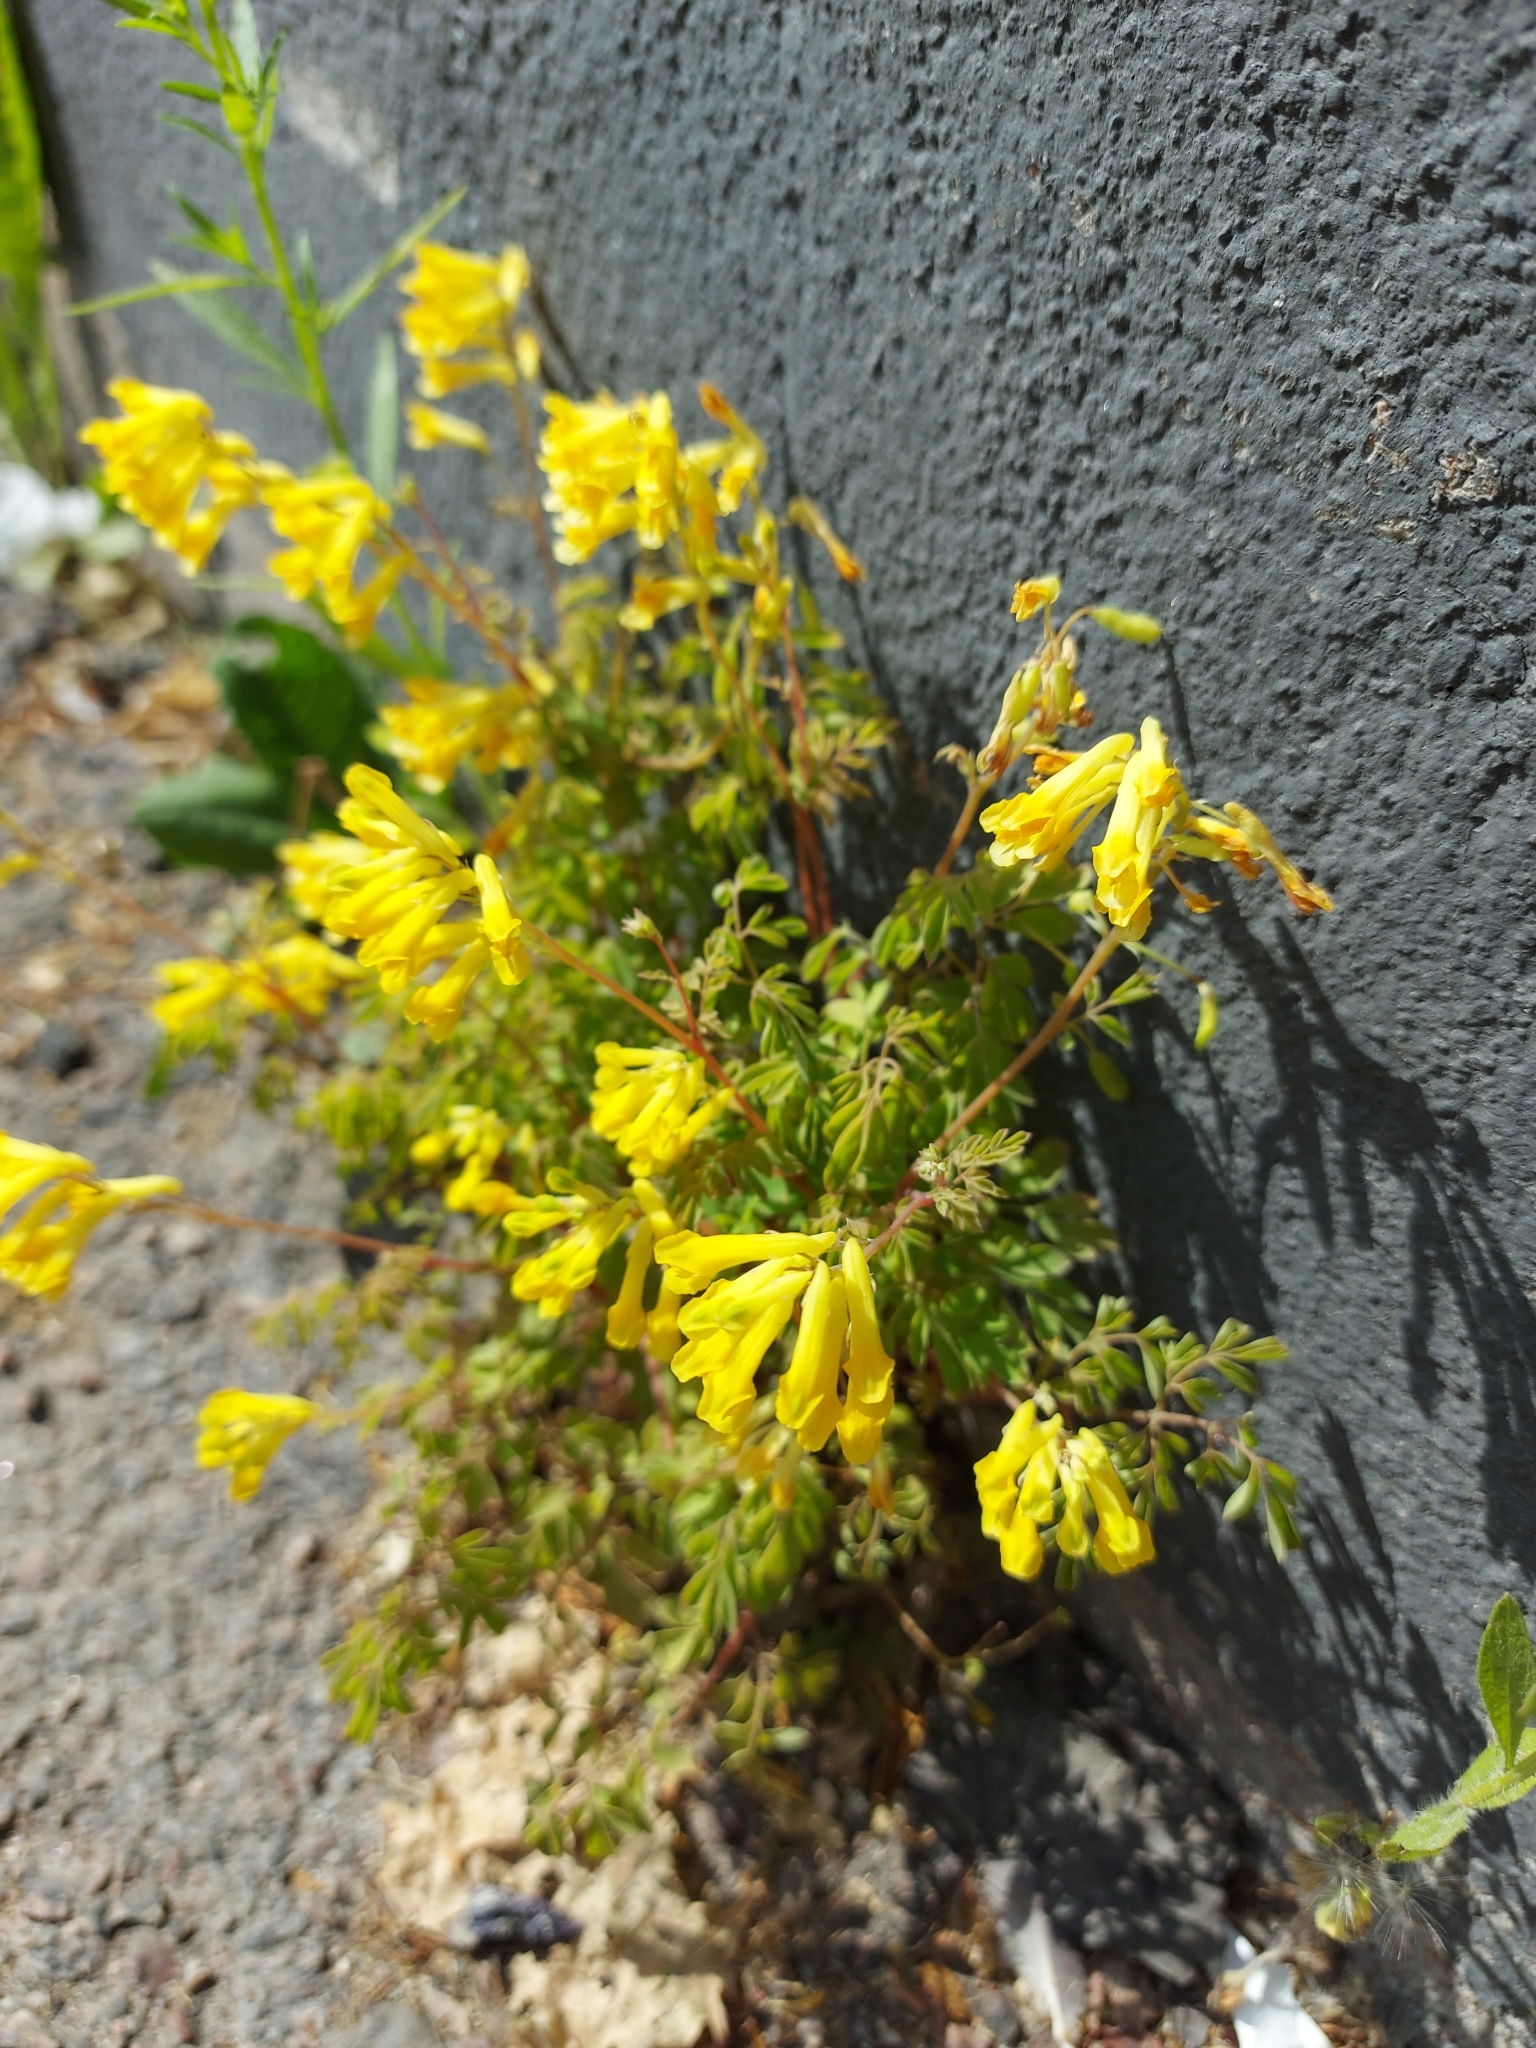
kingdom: Plantae
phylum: Tracheophyta
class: Magnoliopsida
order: Ranunculales
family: Papaveraceae
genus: Pseudofumaria
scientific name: Pseudofumaria lutea
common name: Yellow corydalis
